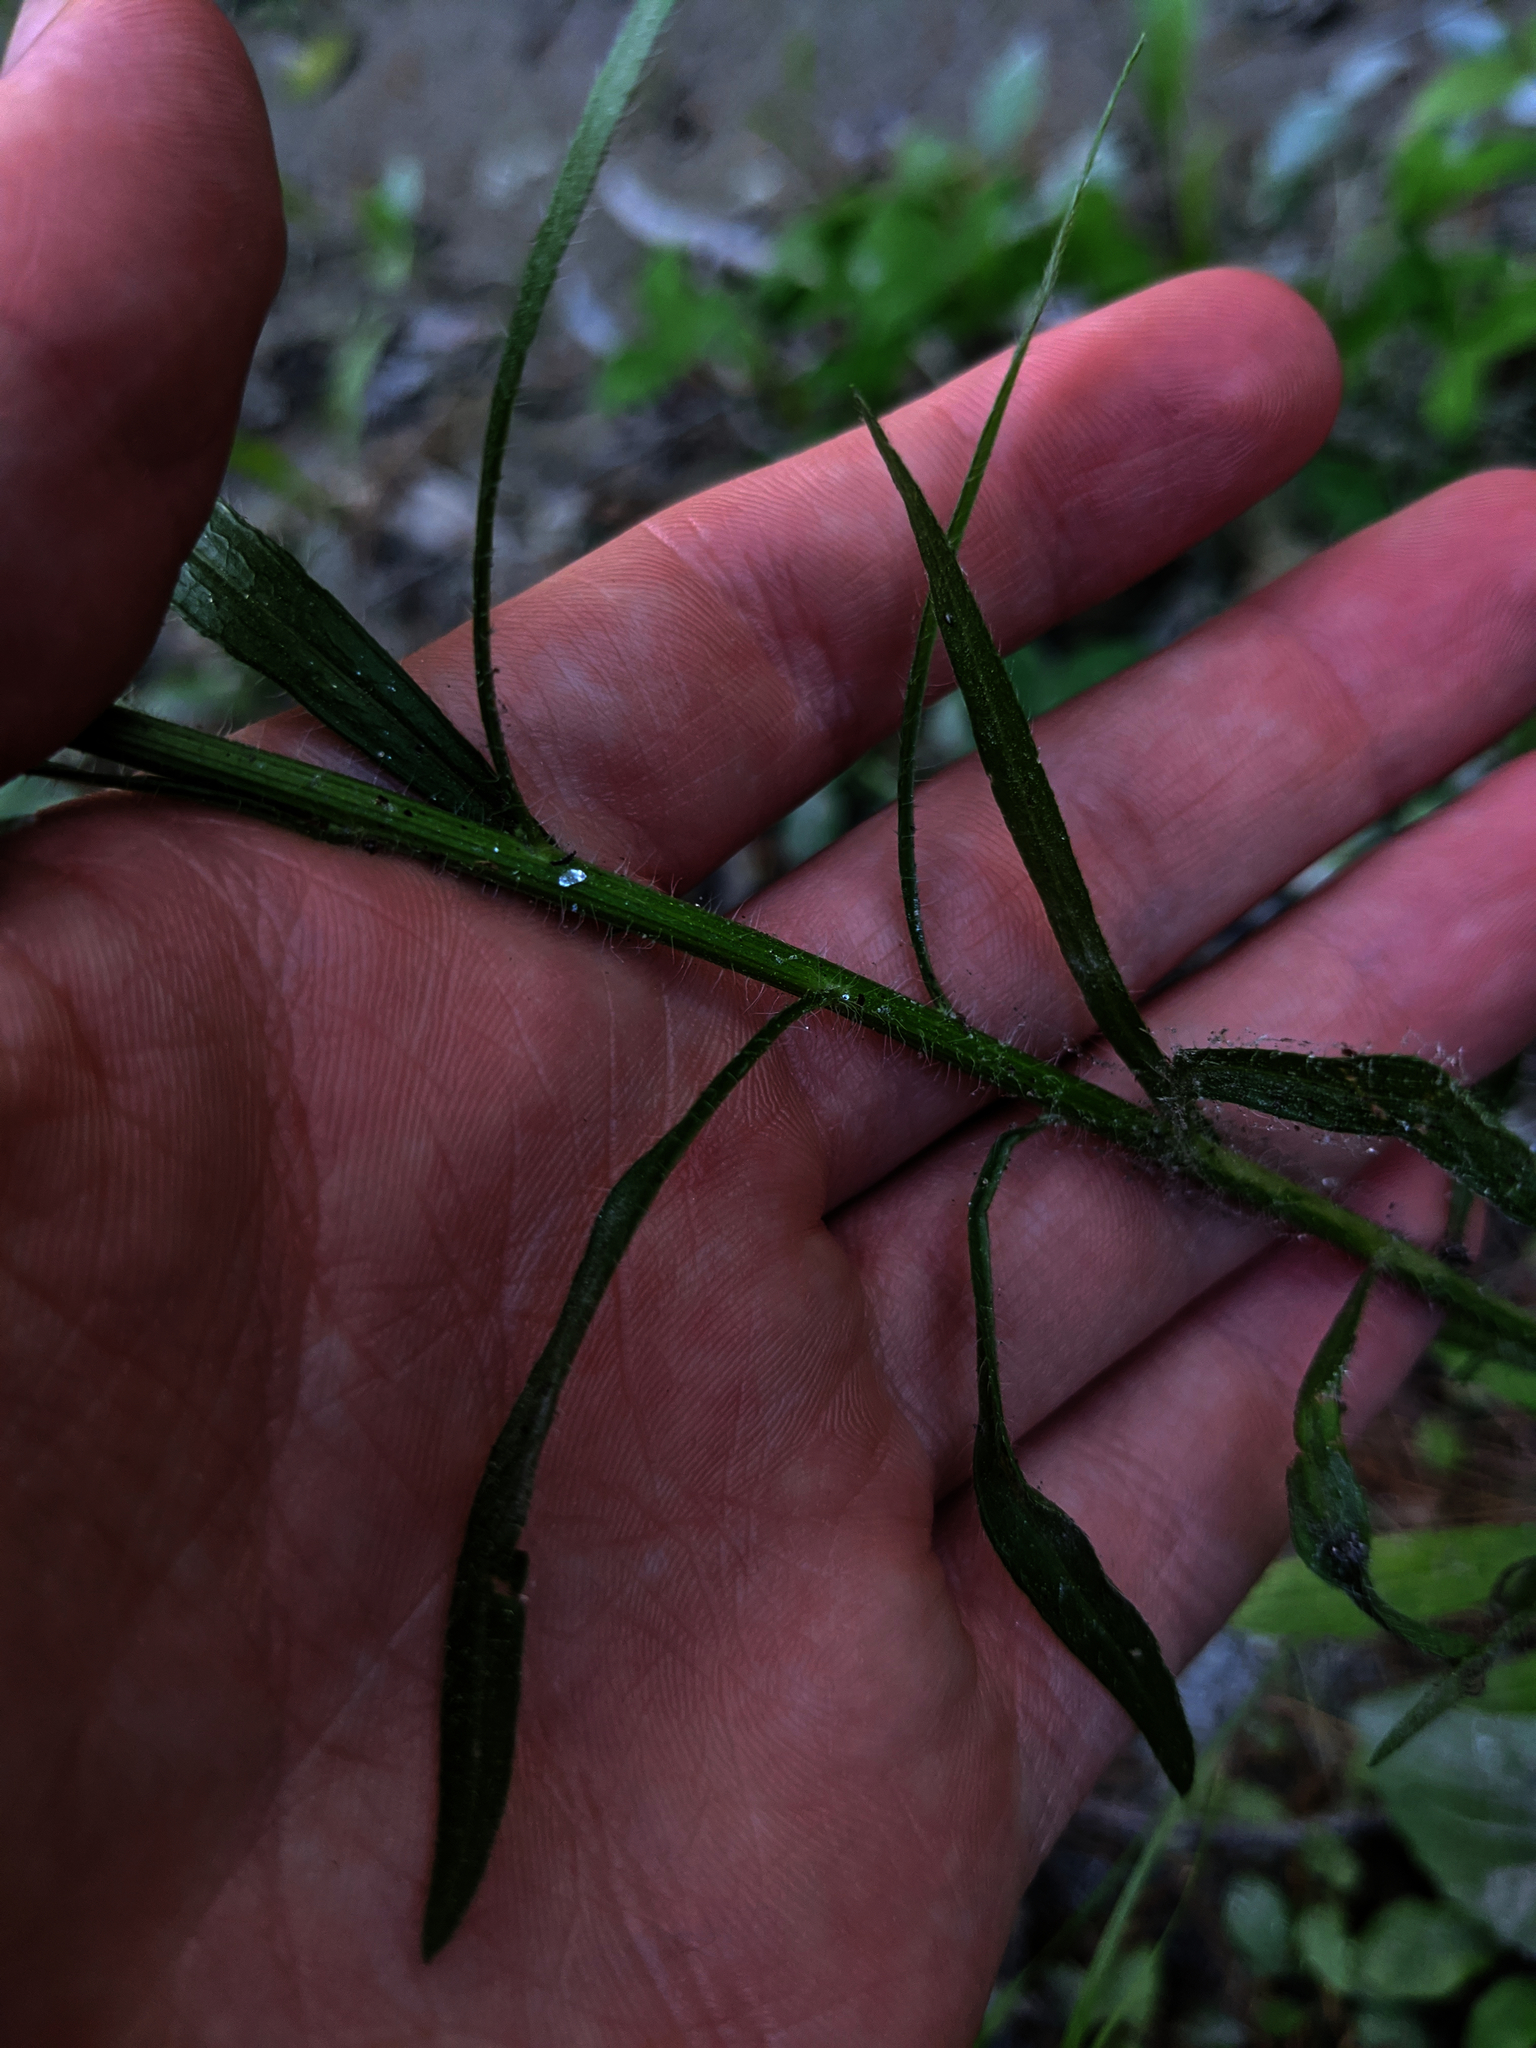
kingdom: Plantae
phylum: Tracheophyta
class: Magnoliopsida
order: Asterales
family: Asteraceae
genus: Erigeron
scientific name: Erigeron canadensis
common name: Canadian fleabane
